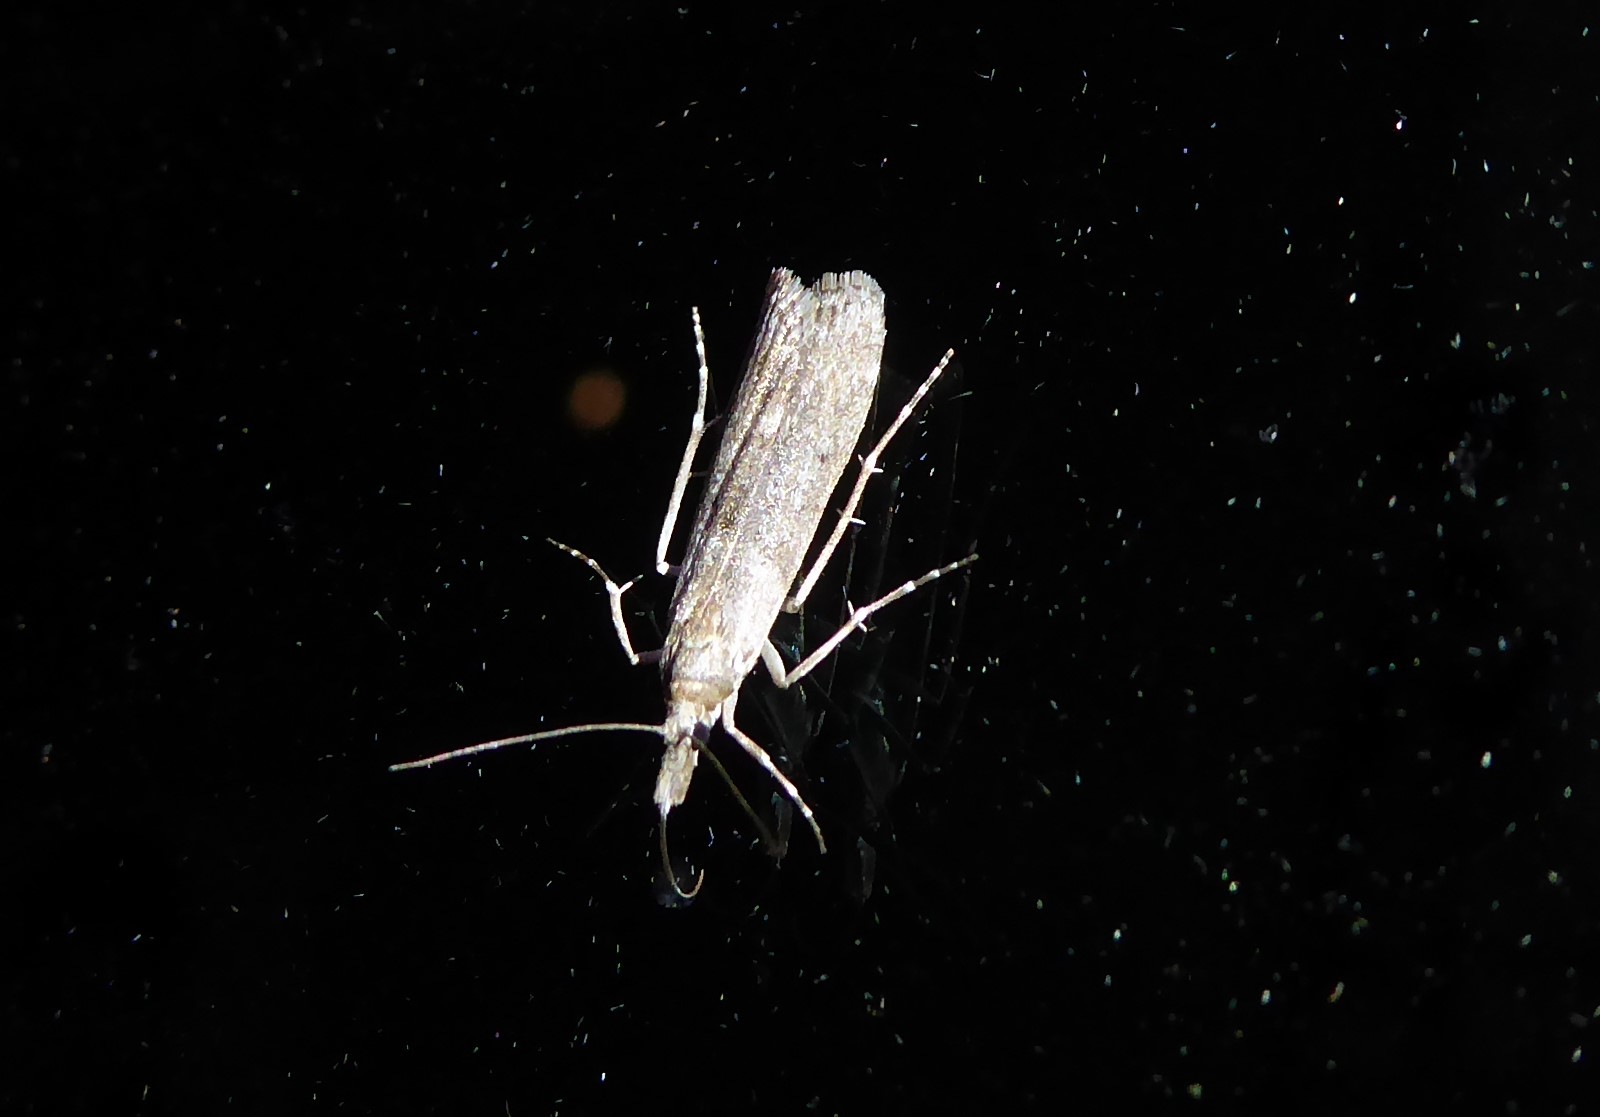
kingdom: Animalia
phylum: Arthropoda
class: Insecta
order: Lepidoptera
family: Crambidae
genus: Eudonia
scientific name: Eudonia leptalea
